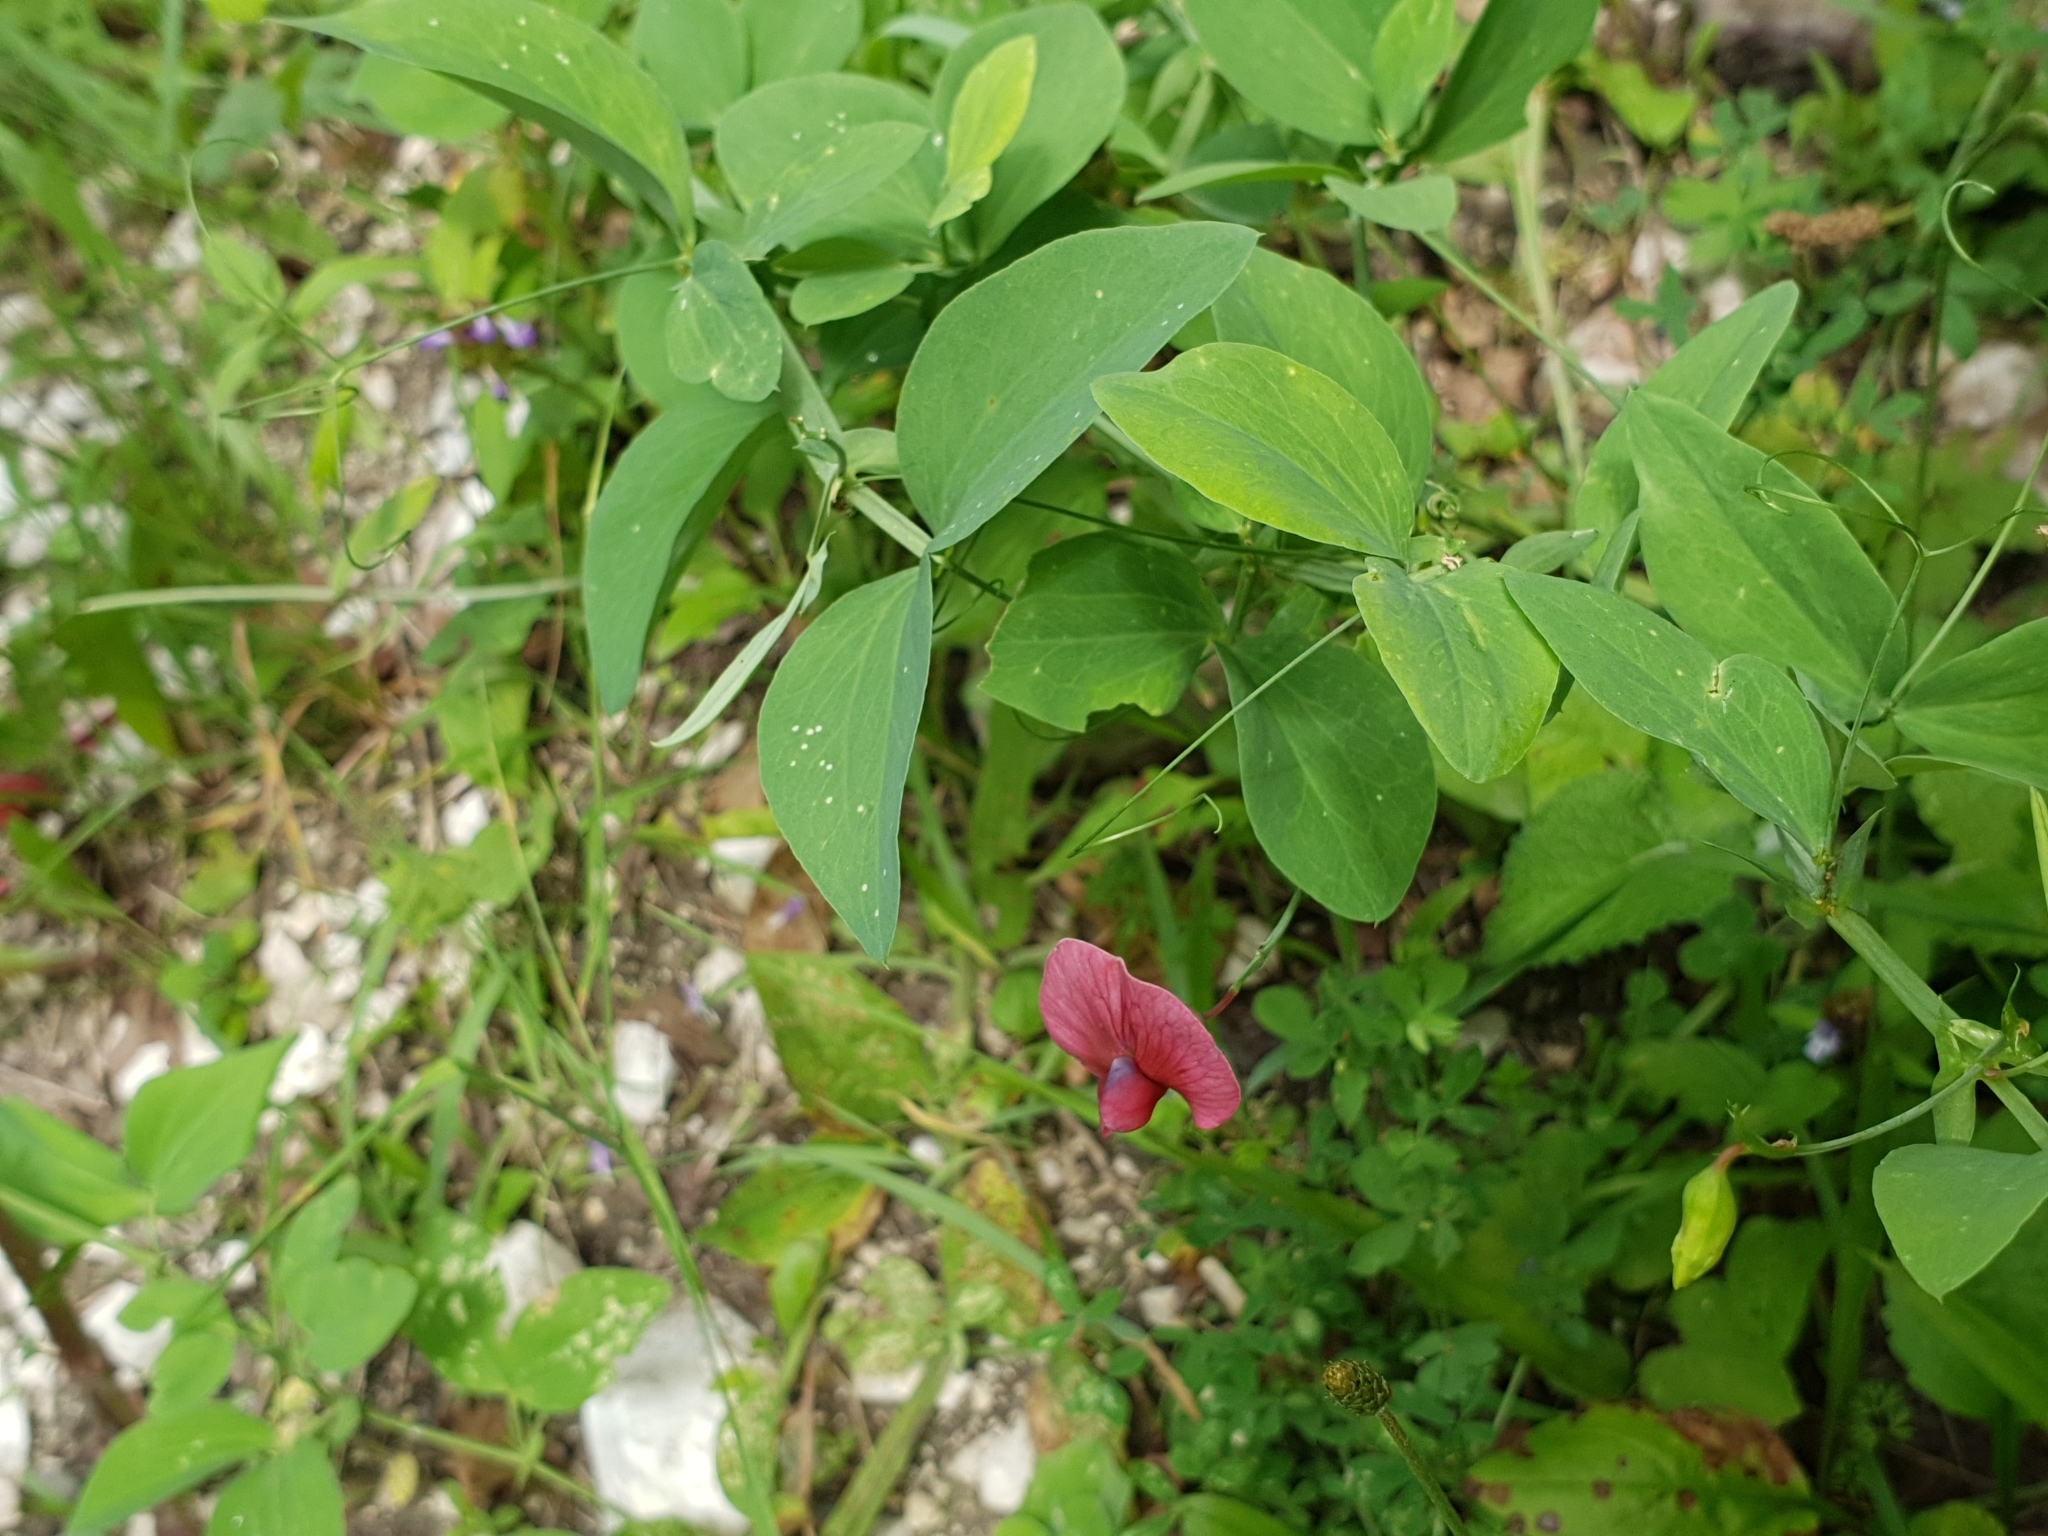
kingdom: Plantae
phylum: Tracheophyta
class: Magnoliopsida
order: Fabales
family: Fabaceae
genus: Lathyrus
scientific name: Lathyrus miniatus
